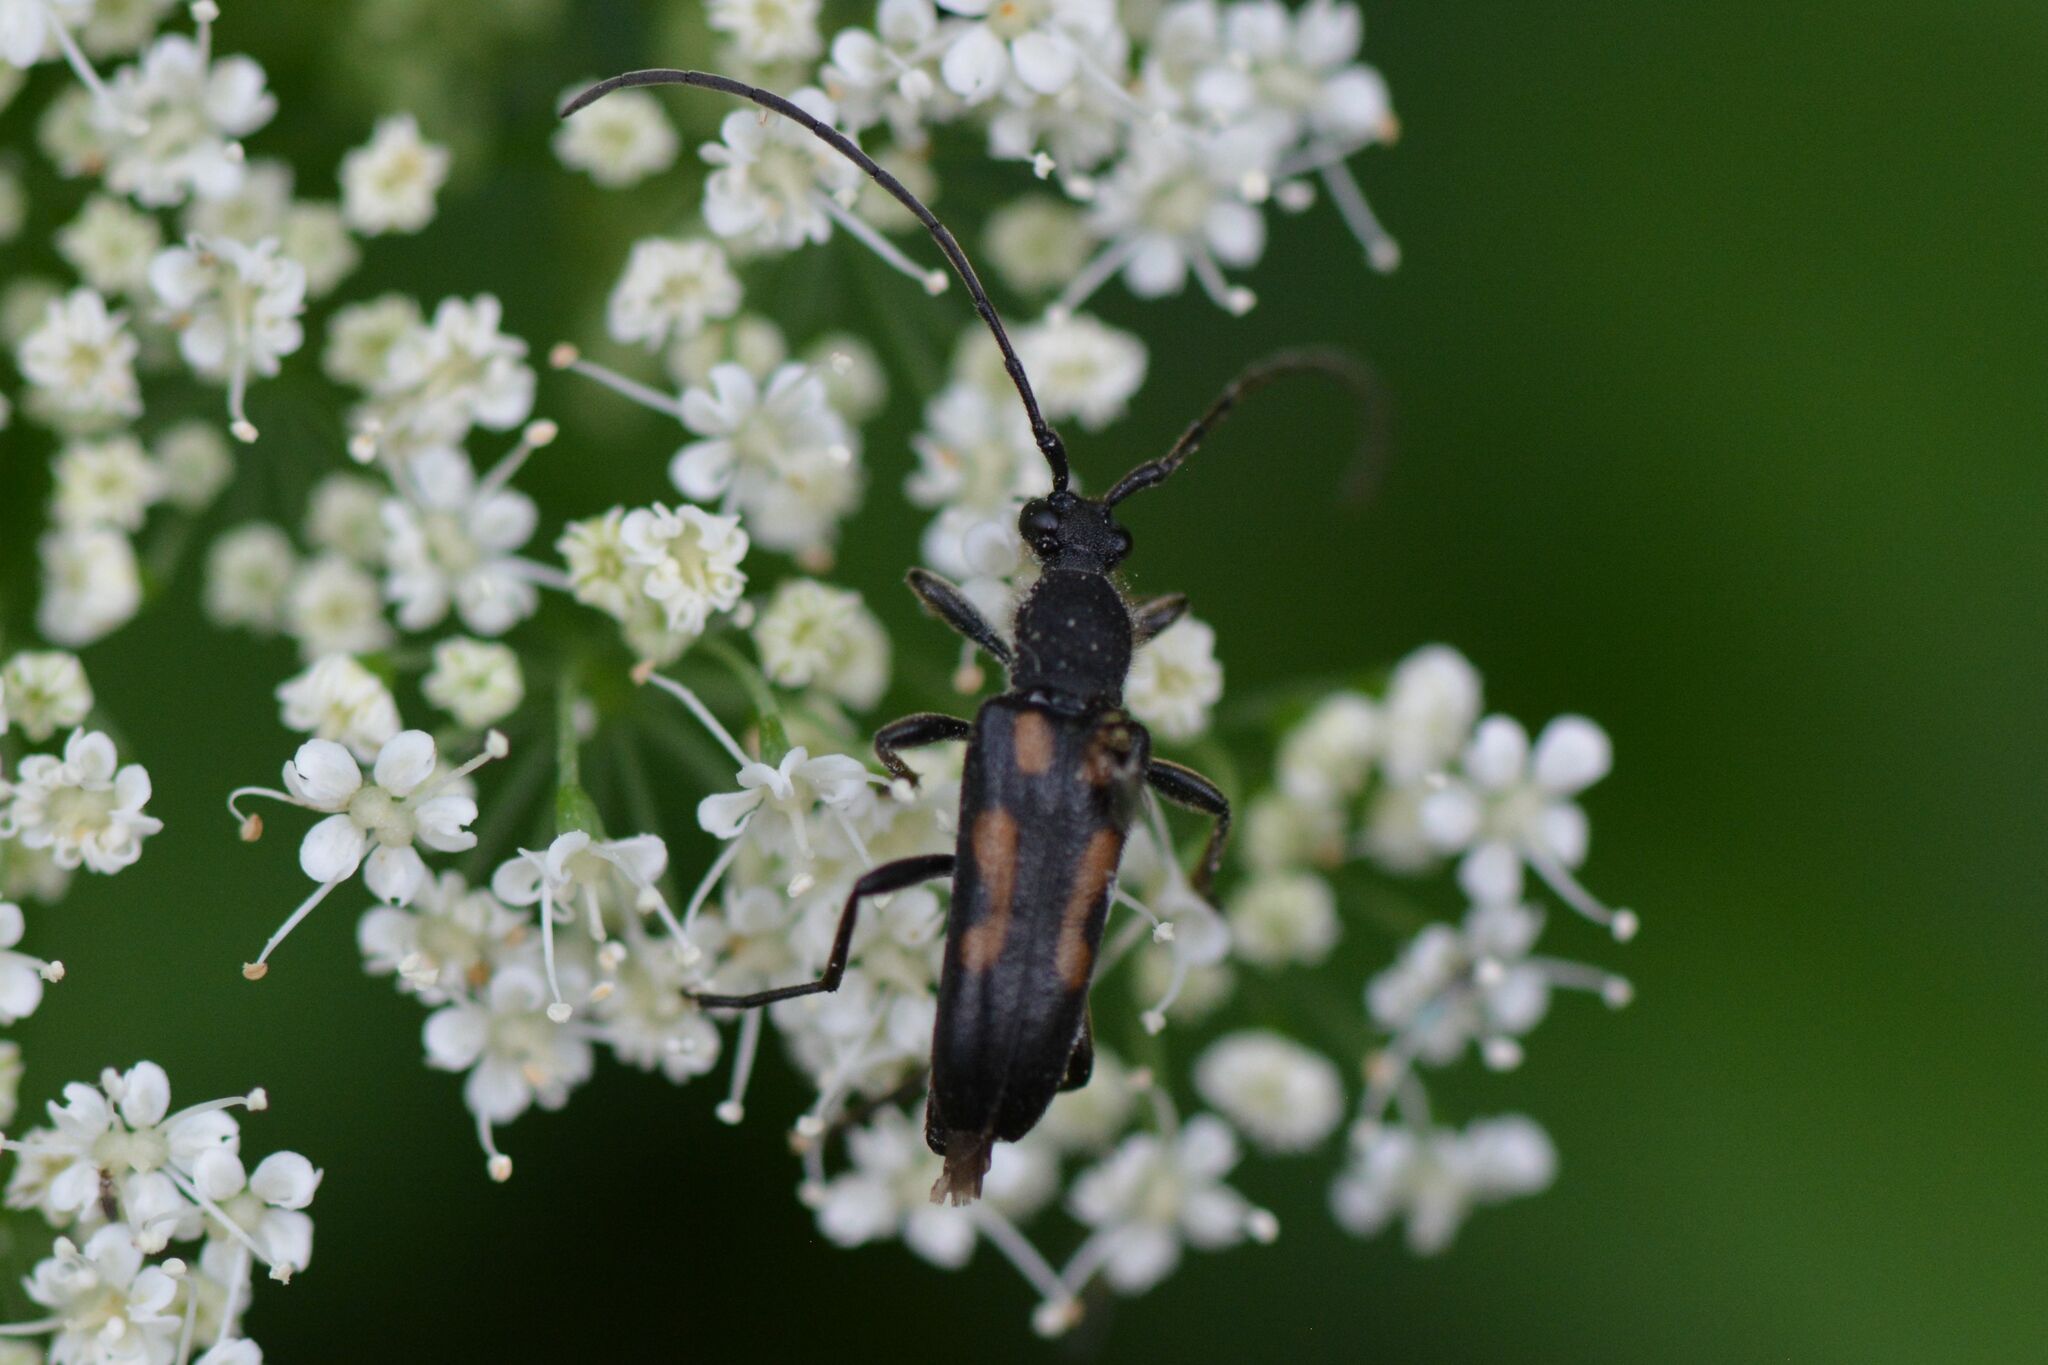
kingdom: Animalia
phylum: Arthropoda
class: Insecta
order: Coleoptera
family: Cerambycidae
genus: Anoplodera
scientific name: Anoplodera sexguttata
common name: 6 spotted longhorn
